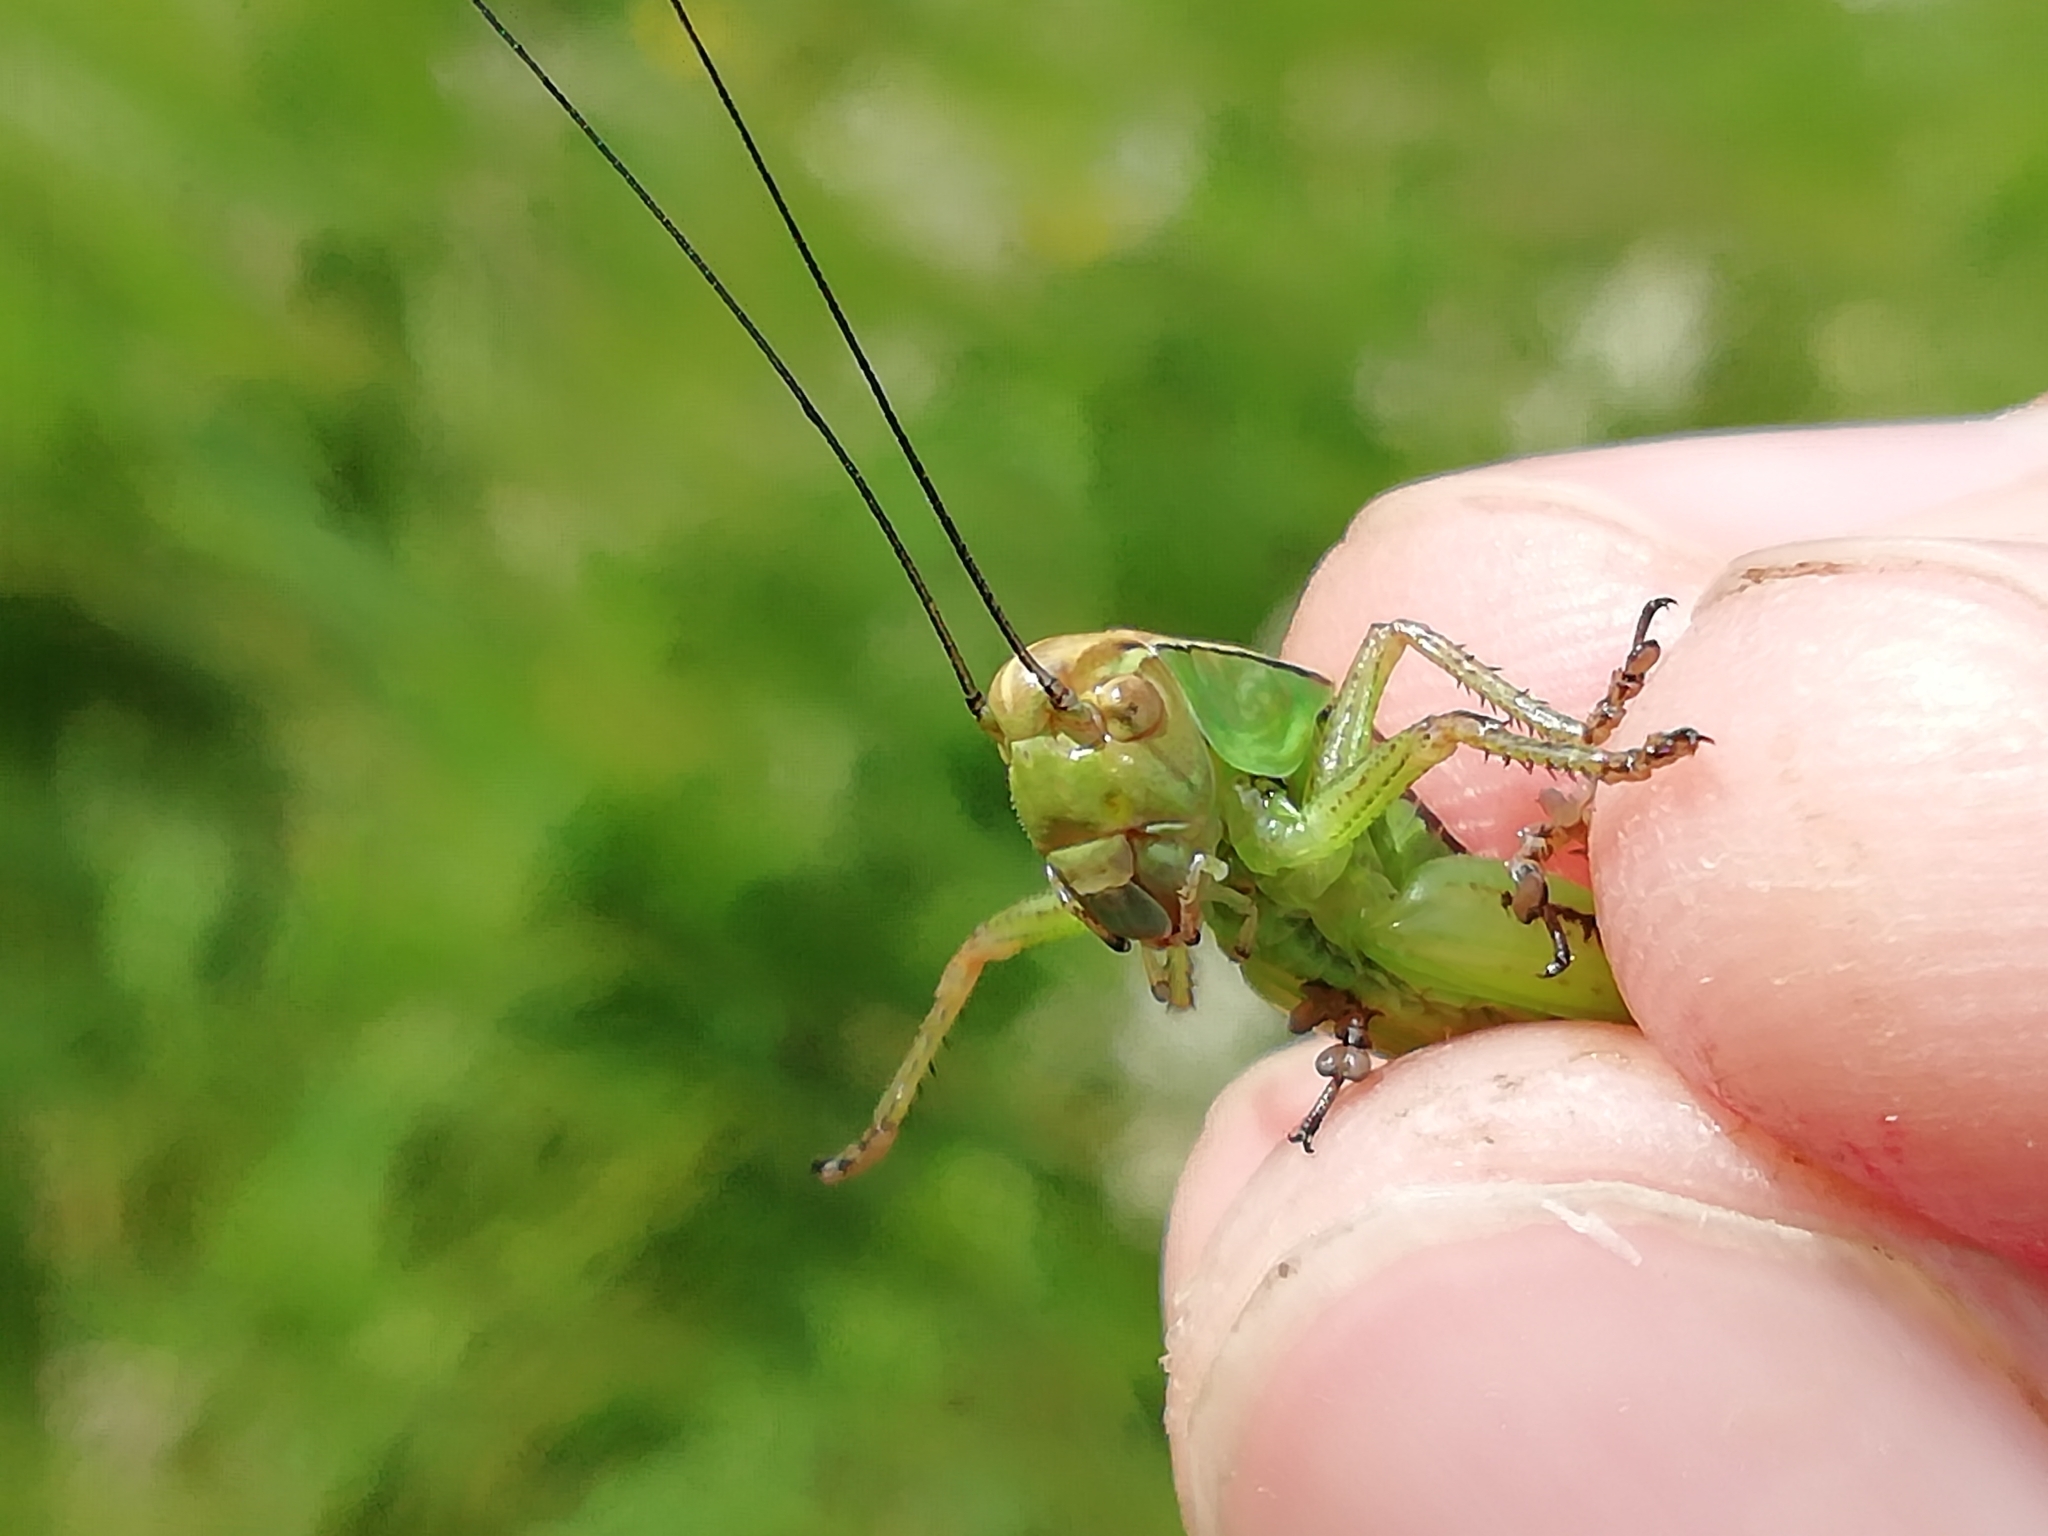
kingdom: Animalia
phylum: Arthropoda
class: Insecta
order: Orthoptera
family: Tettigoniidae
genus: Roeseliana
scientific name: Roeseliana roeselii
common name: Roesel's bush cricket
